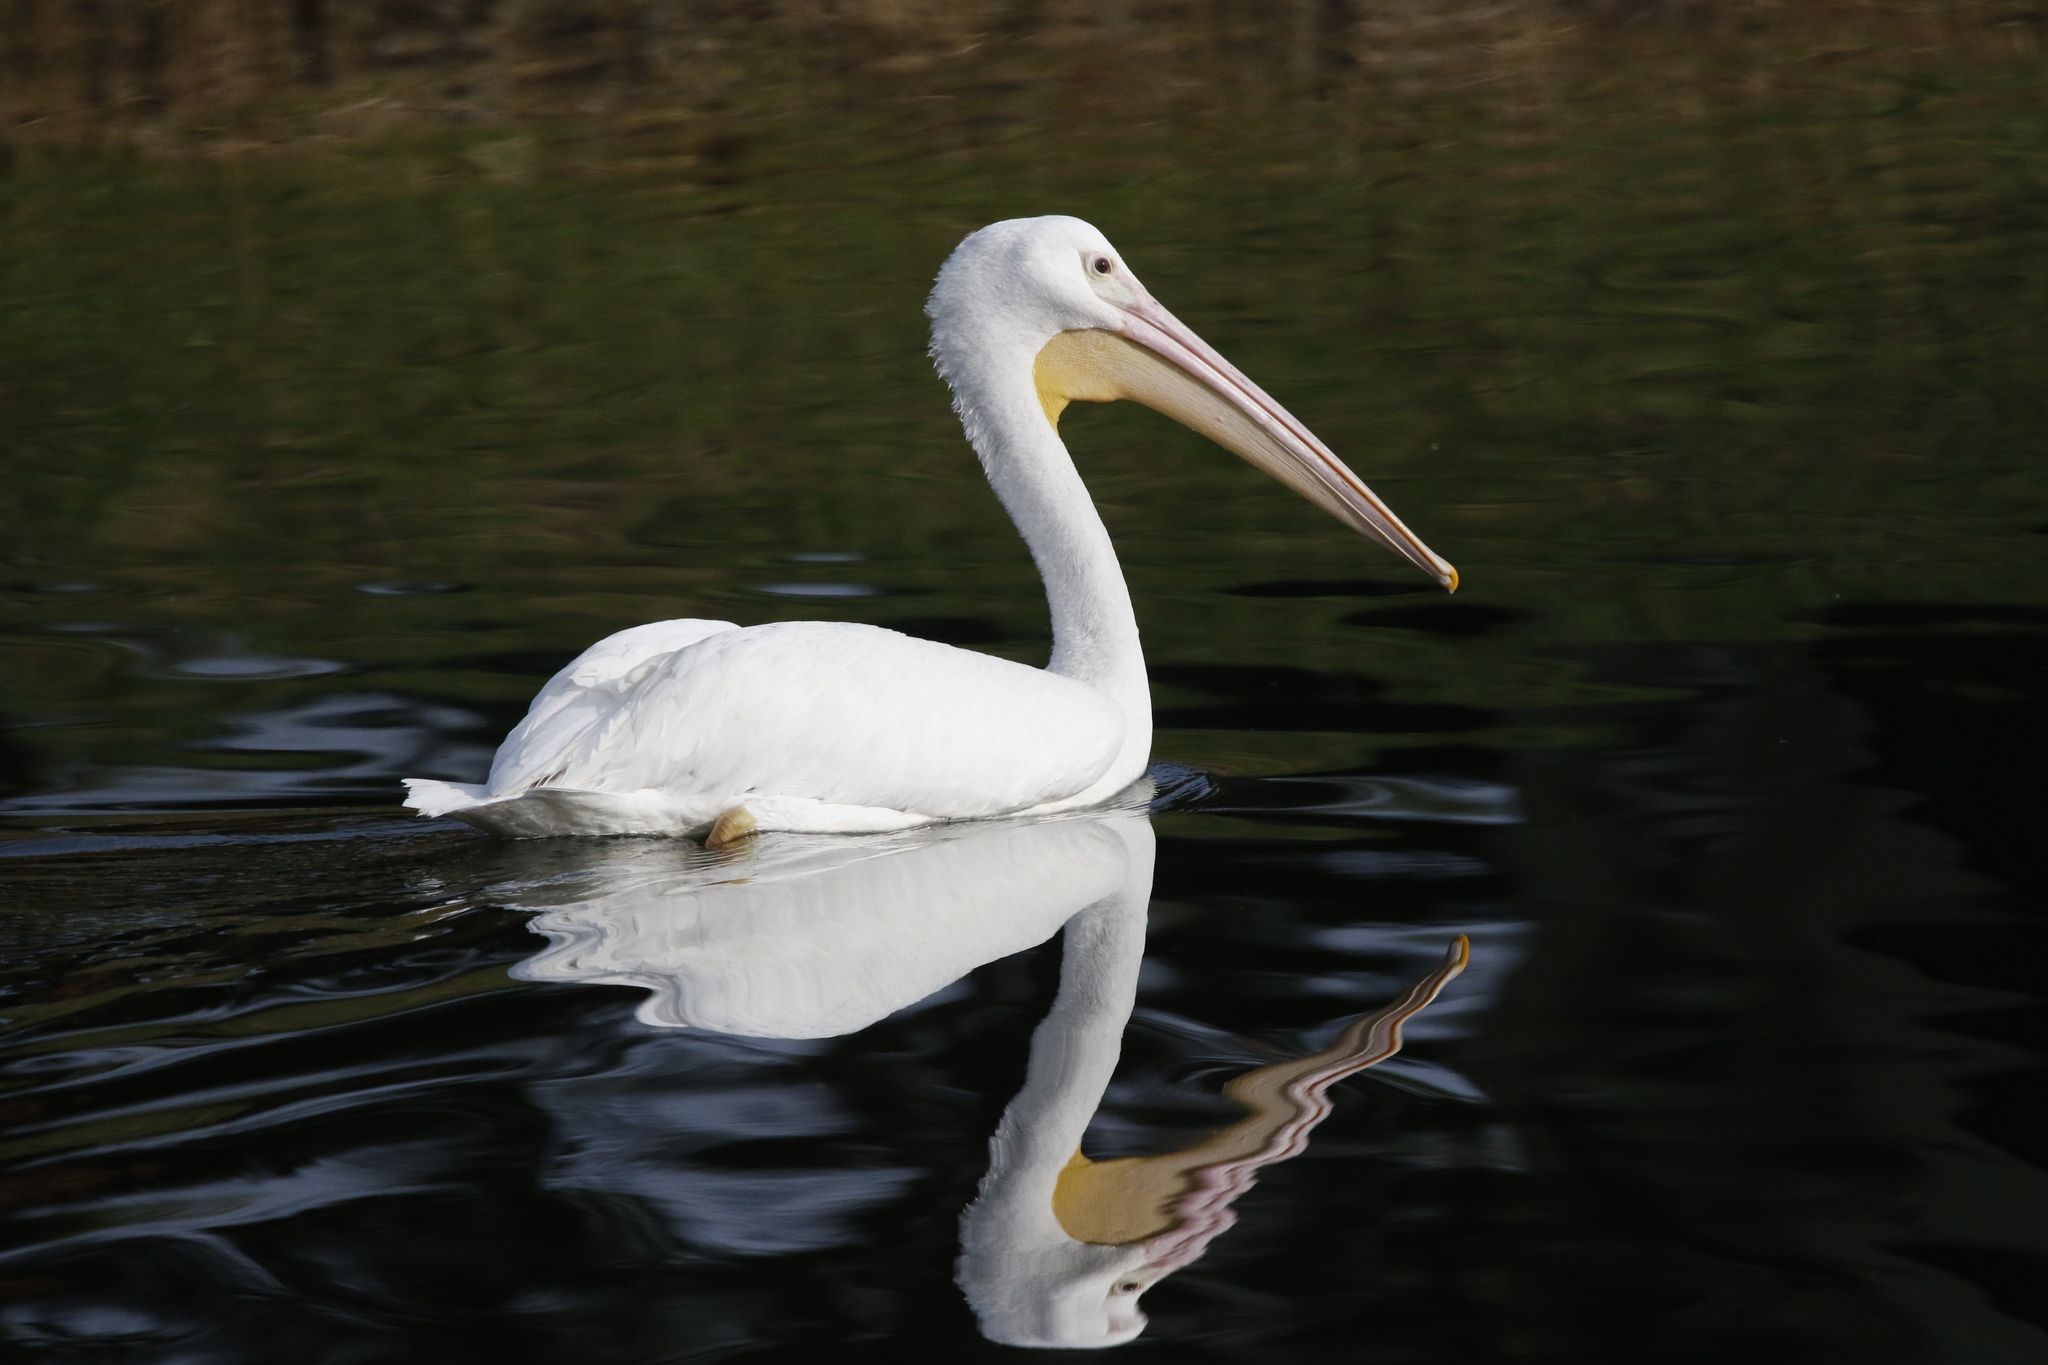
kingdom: Animalia
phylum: Chordata
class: Aves
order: Pelecaniformes
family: Pelecanidae
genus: Pelecanus
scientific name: Pelecanus erythrorhynchos
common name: American white pelican
